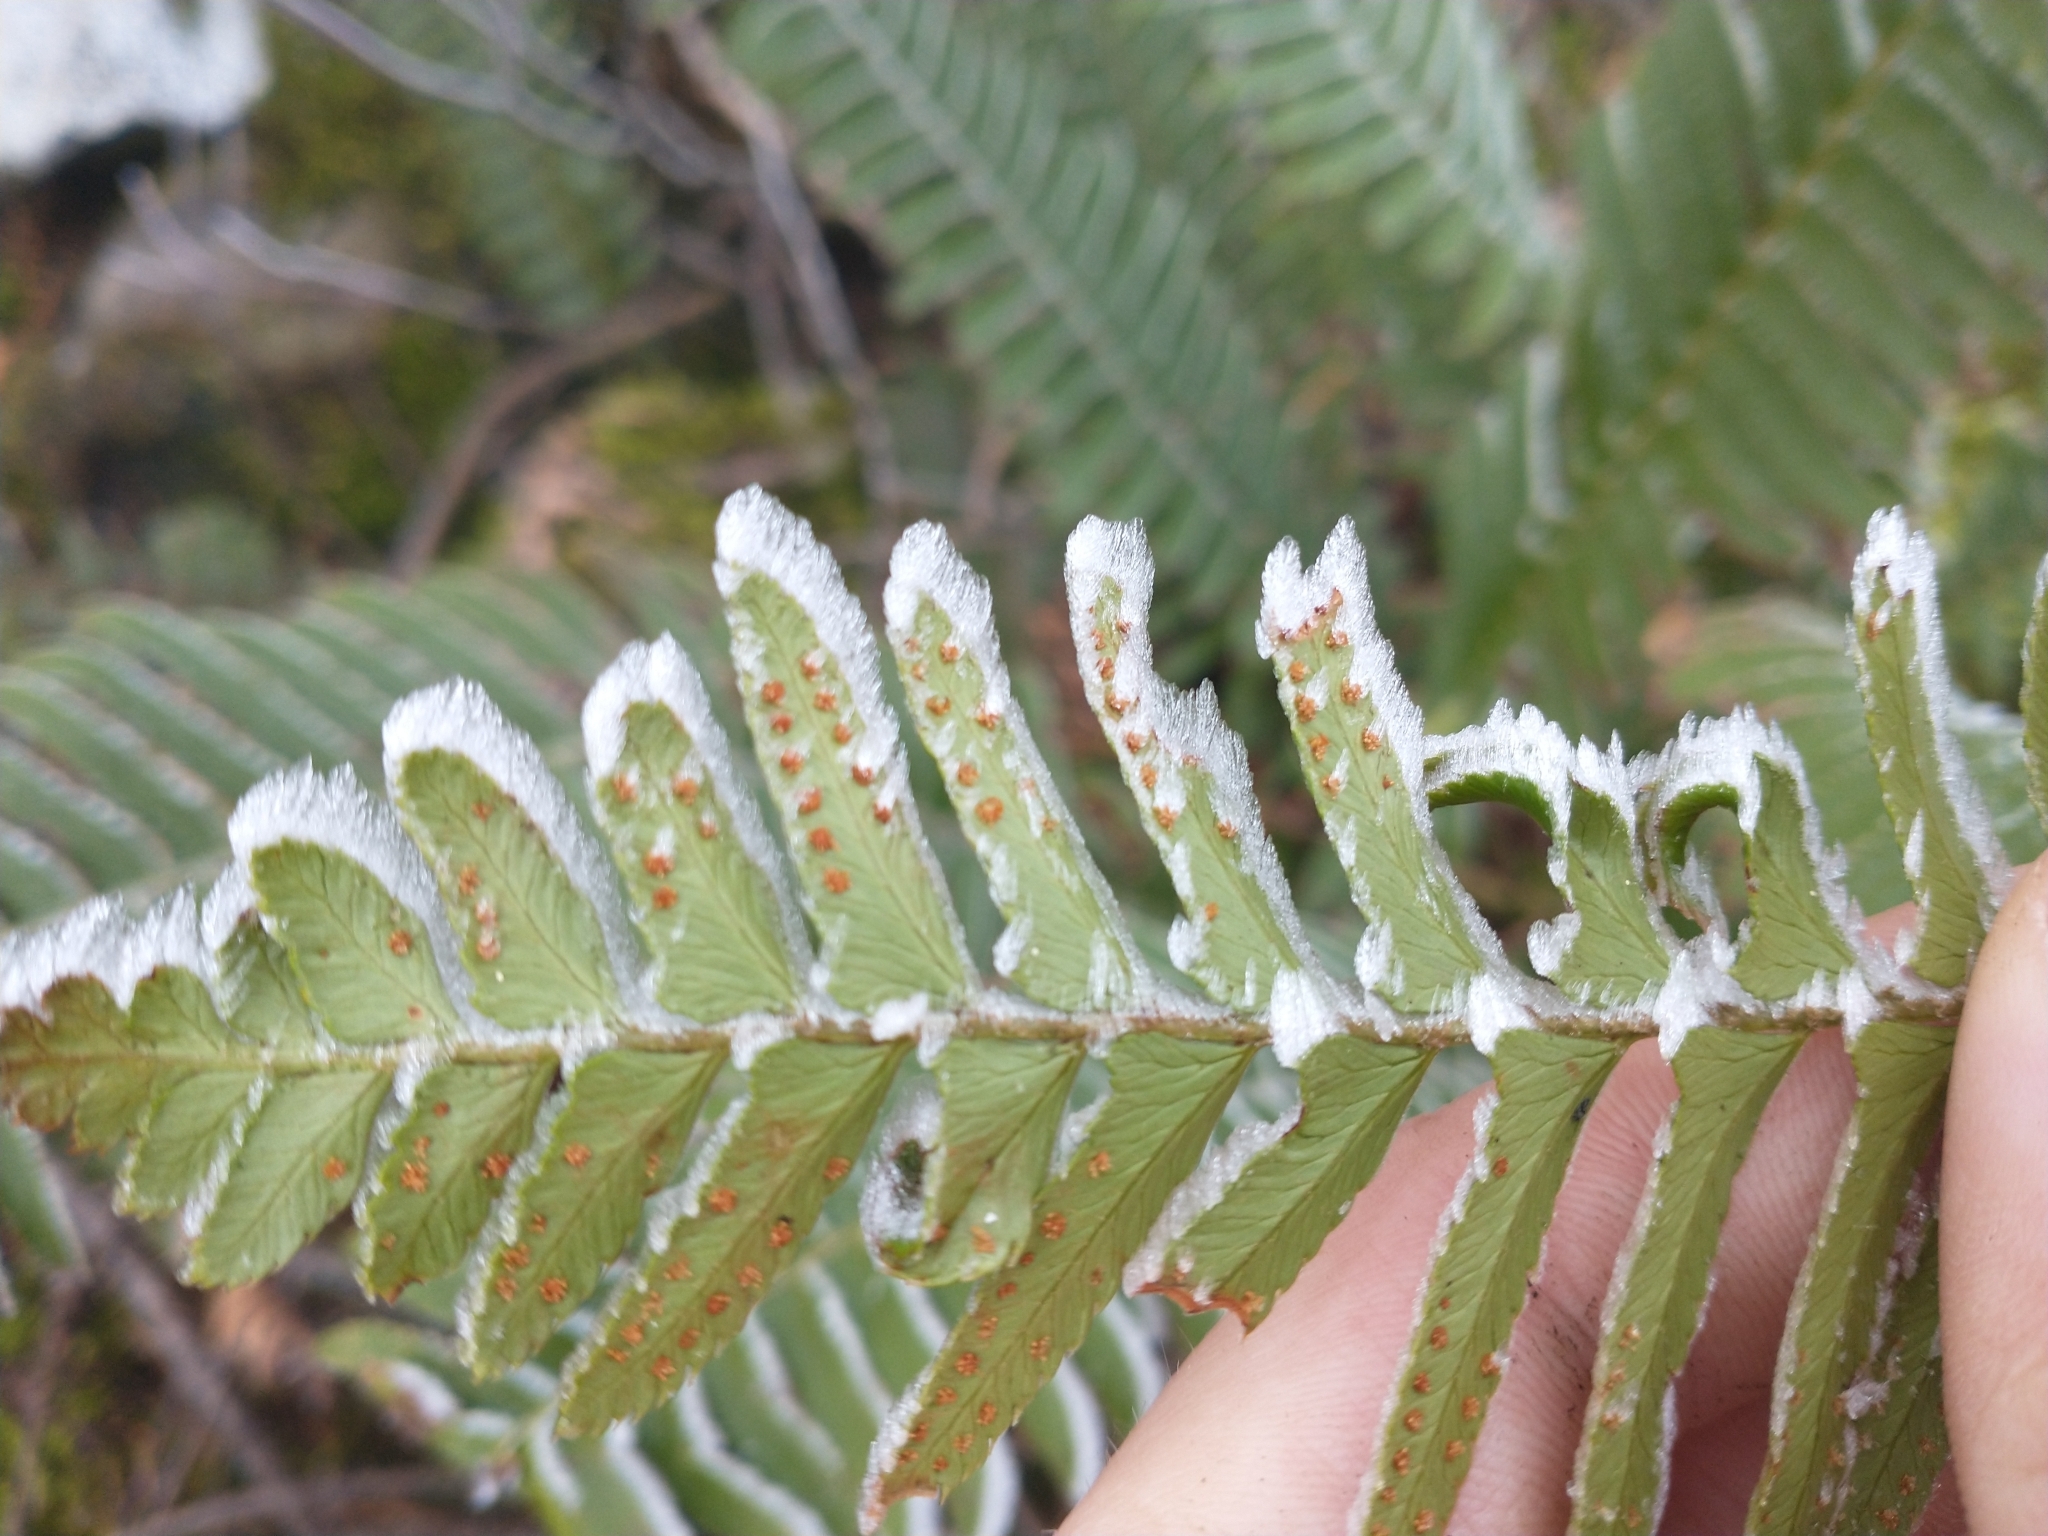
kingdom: Plantae
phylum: Tracheophyta
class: Polypodiopsida
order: Polypodiales
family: Dryopteridaceae
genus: Polystichum
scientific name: Polystichum munitum
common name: Western sword-fern
